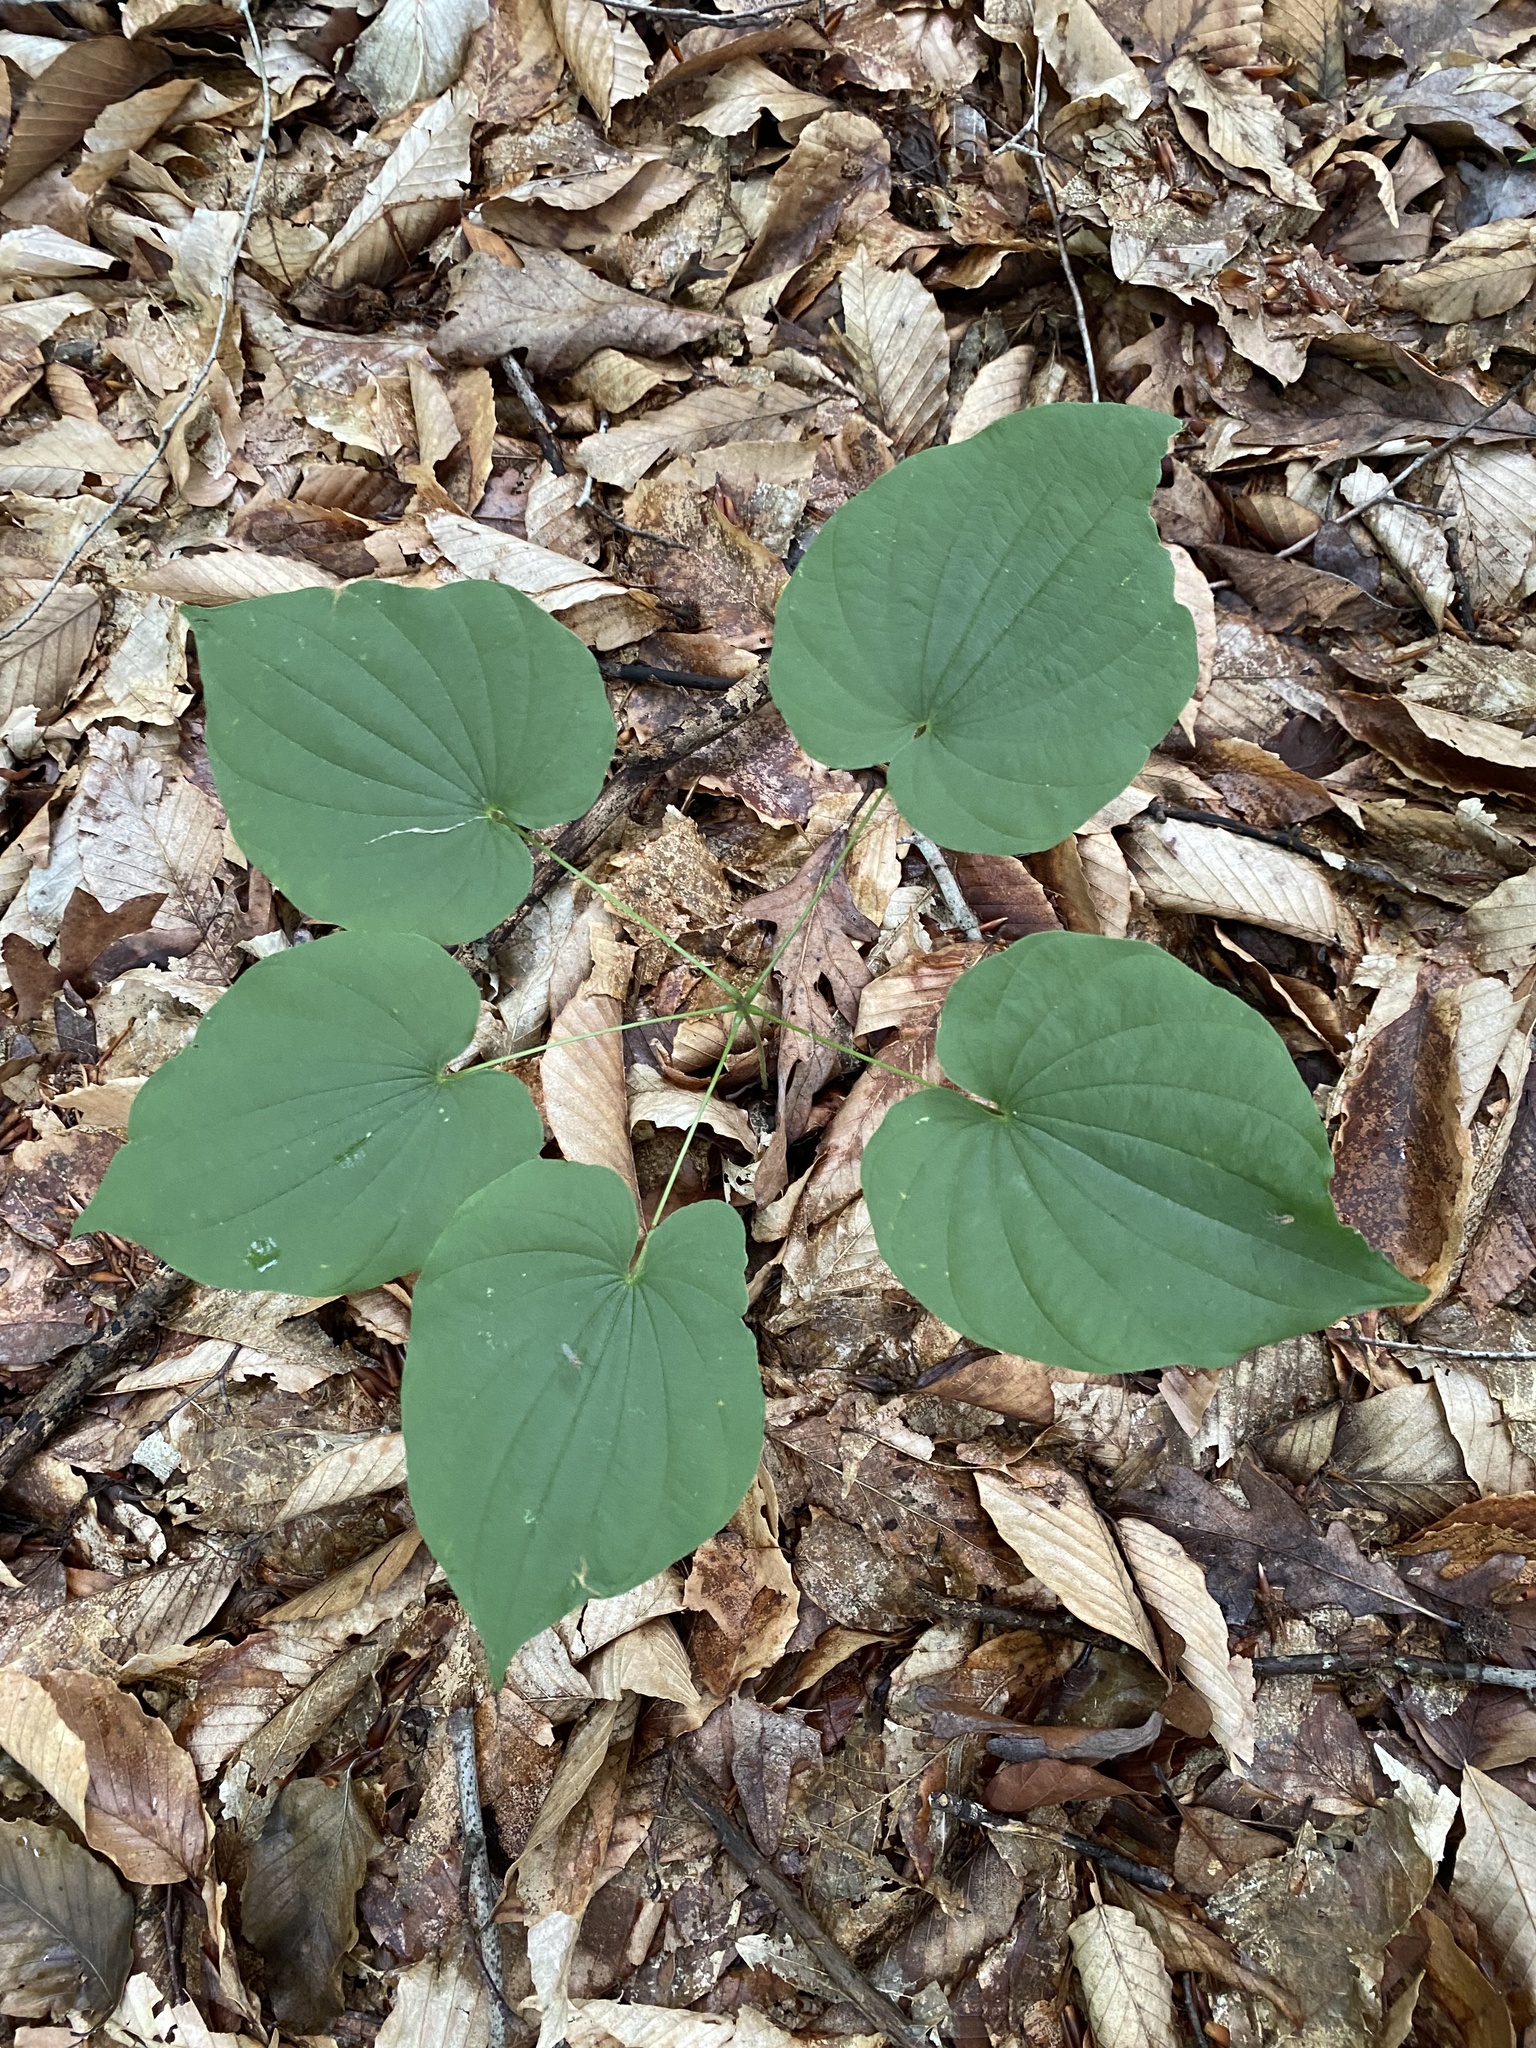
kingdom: Plantae
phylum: Tracheophyta
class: Liliopsida
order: Dioscoreales
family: Dioscoreaceae
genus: Dioscorea
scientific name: Dioscorea villosa
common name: Wild yam
